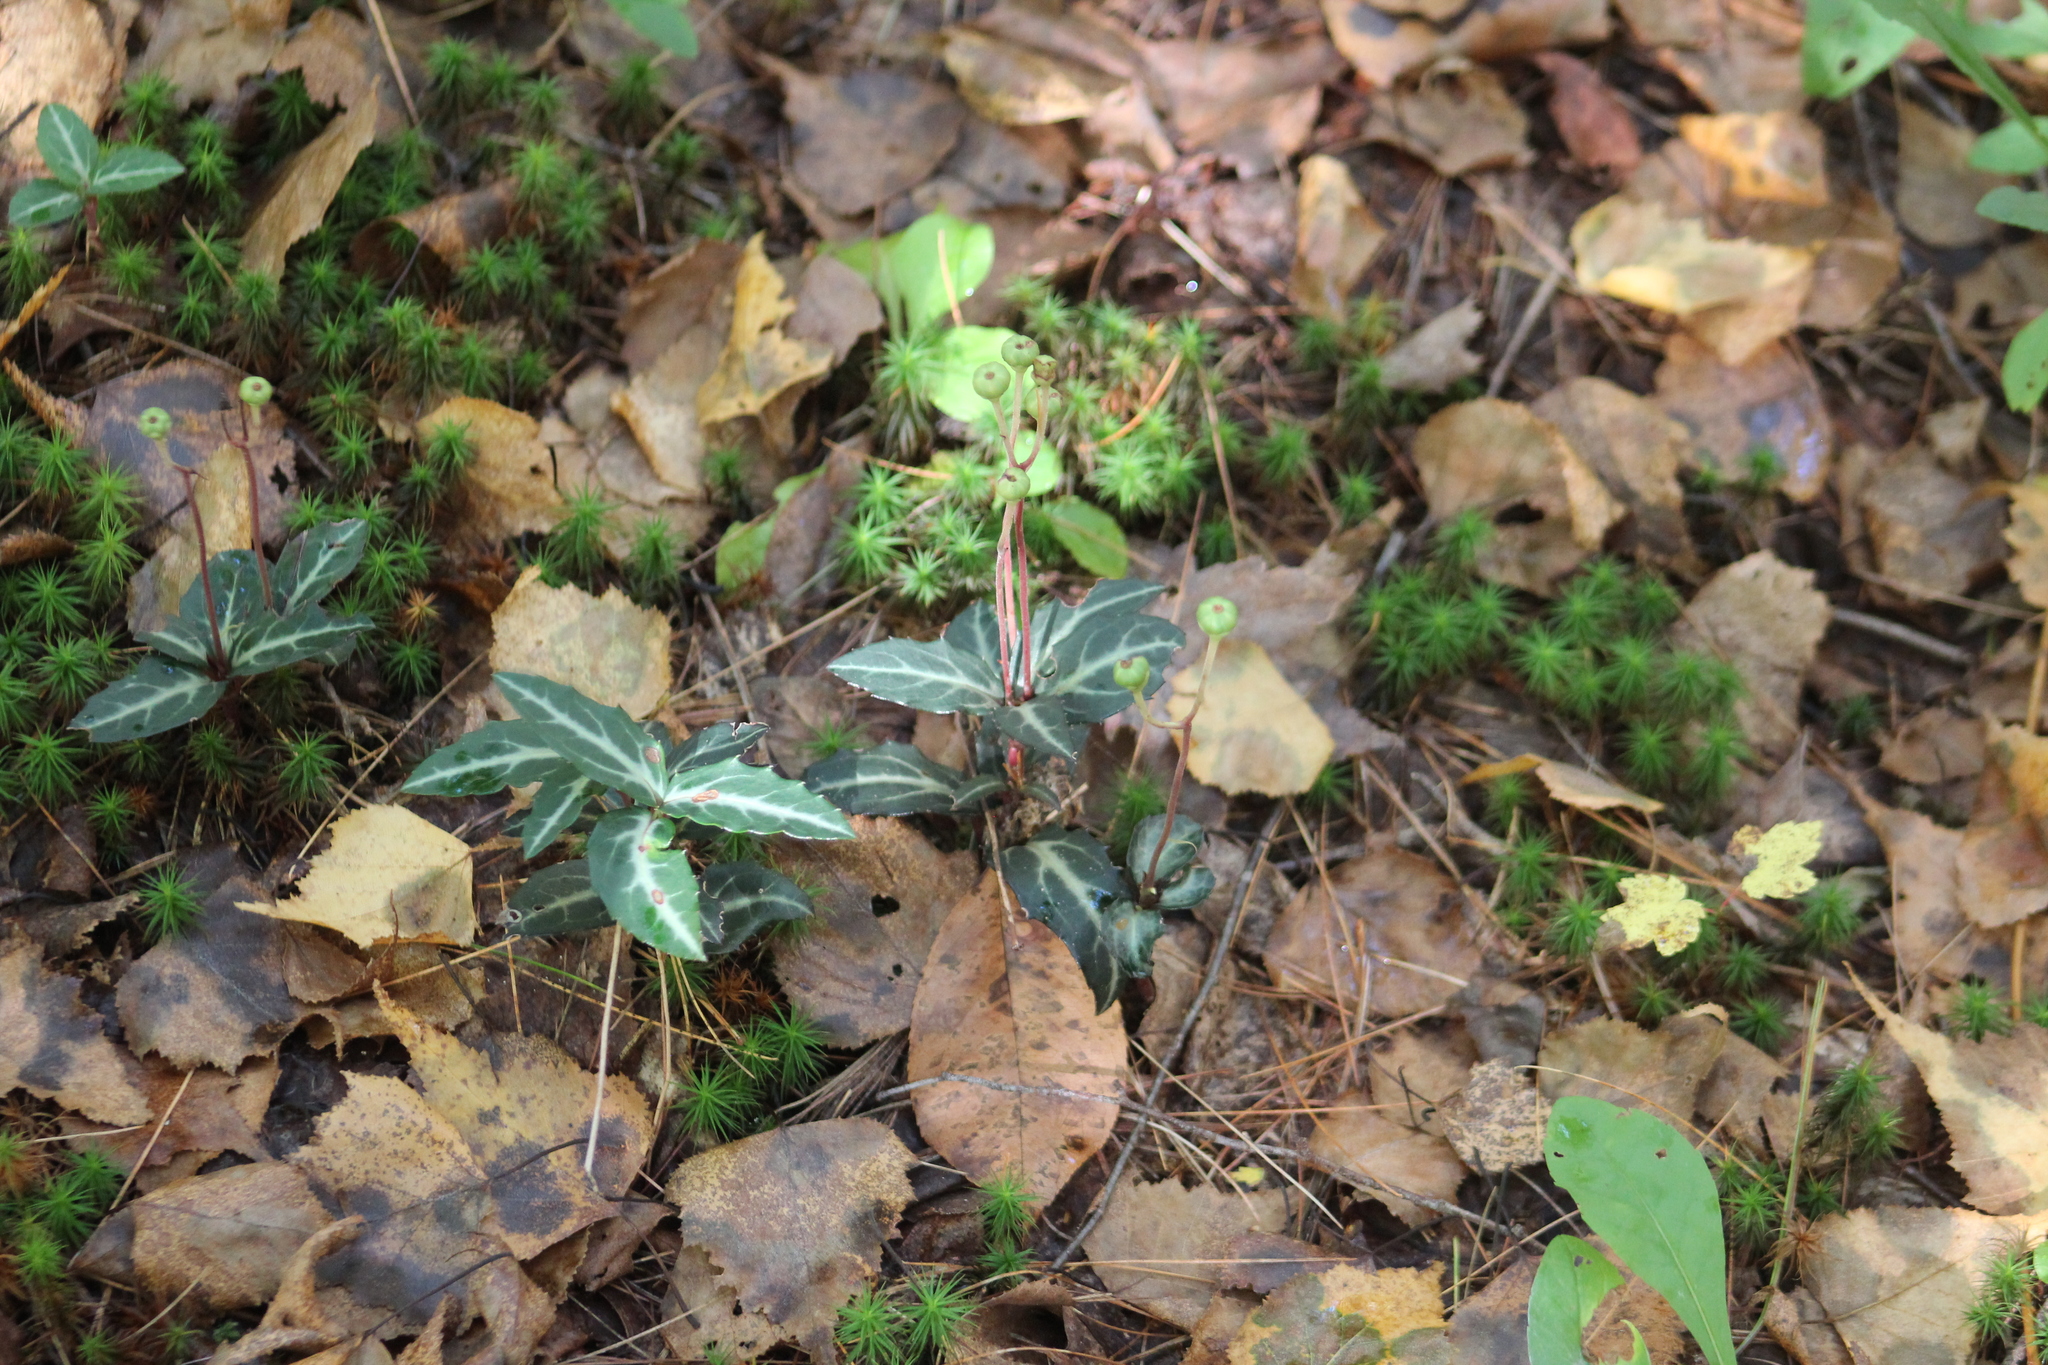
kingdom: Plantae
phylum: Tracheophyta
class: Magnoliopsida
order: Ericales
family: Ericaceae
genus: Chimaphila
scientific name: Chimaphila maculata
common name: Spotted pipsissewa
